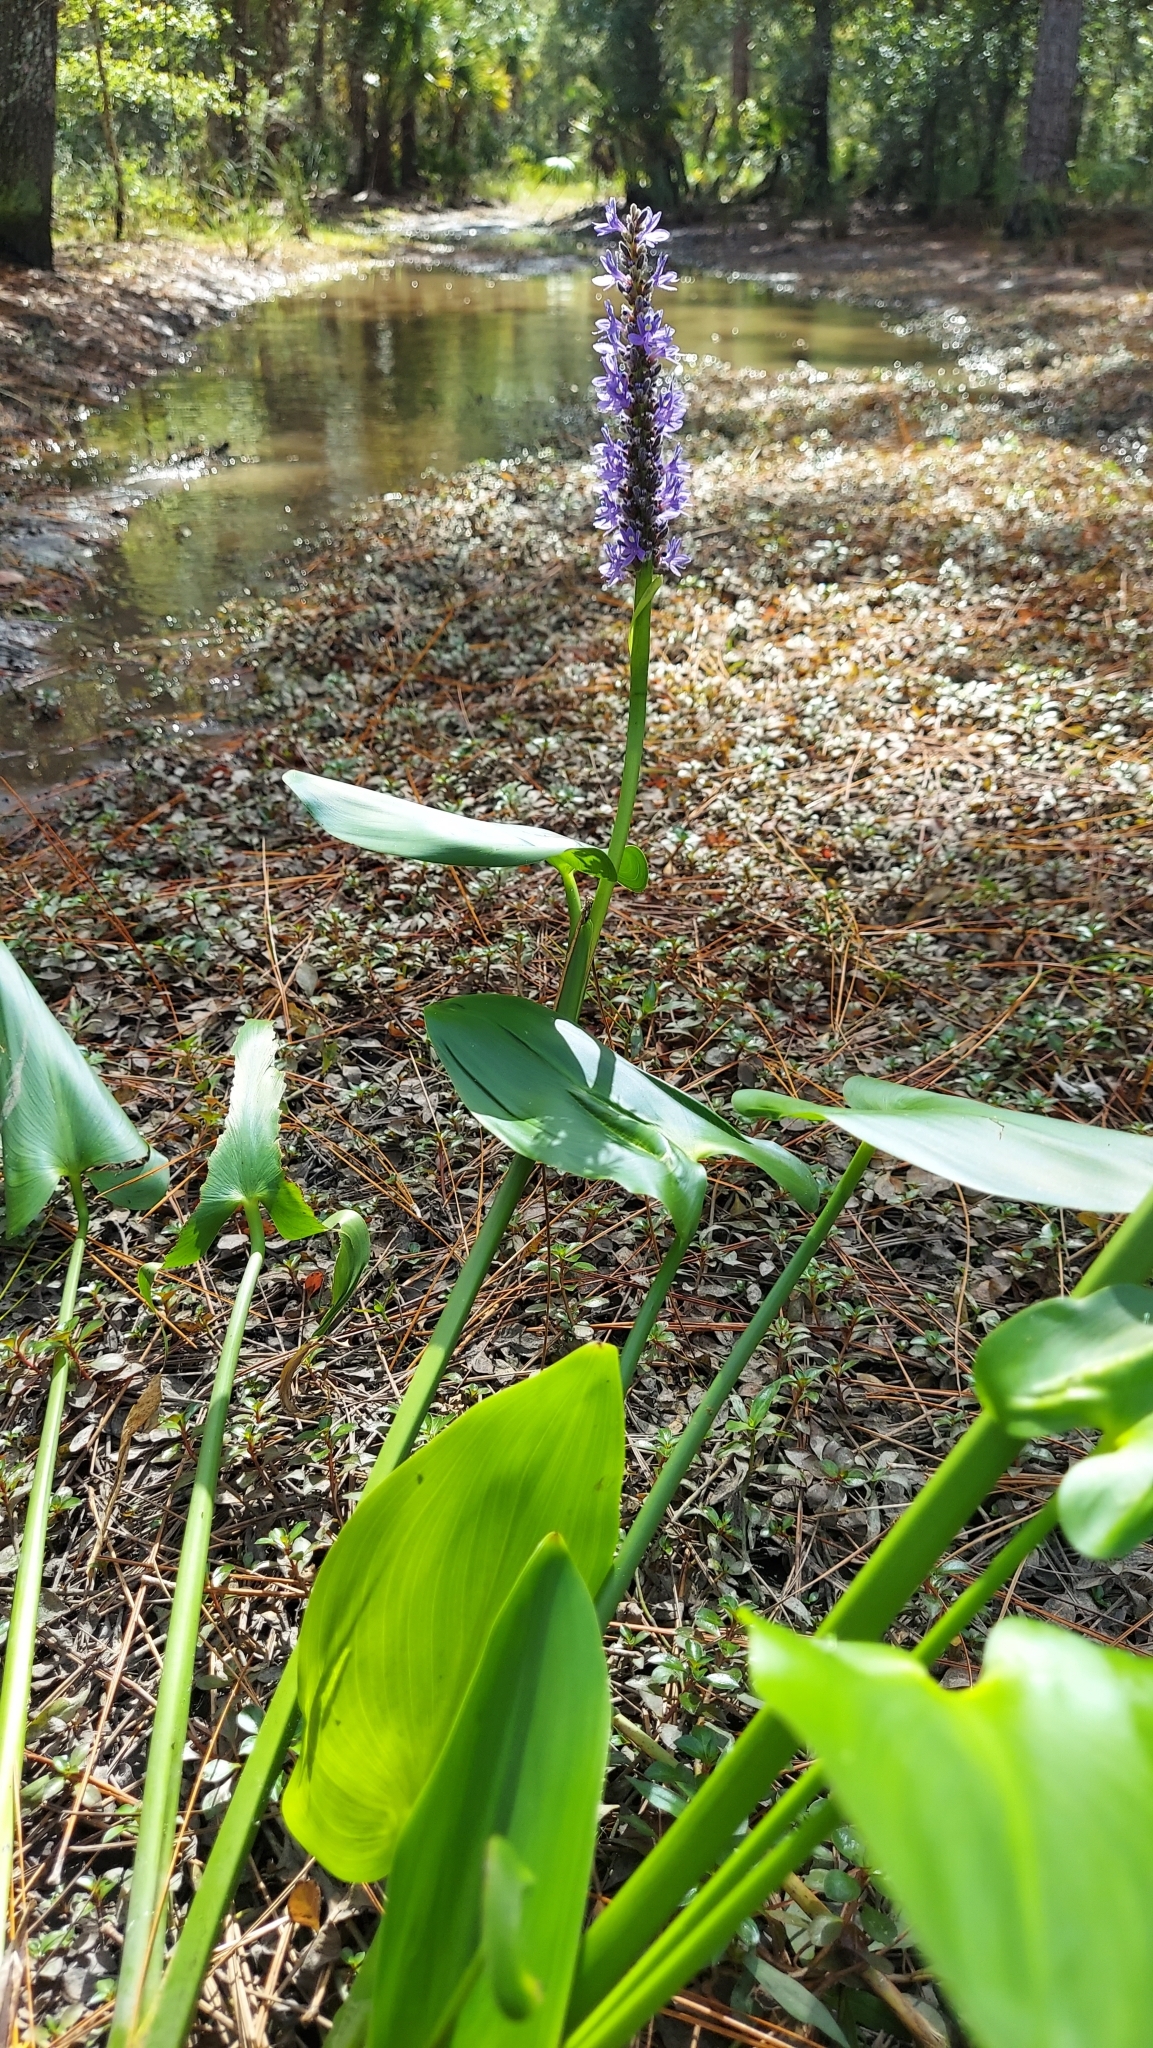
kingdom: Plantae
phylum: Tracheophyta
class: Liliopsida
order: Commelinales
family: Pontederiaceae
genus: Pontederia
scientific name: Pontederia cordata
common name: Pickerelweed
